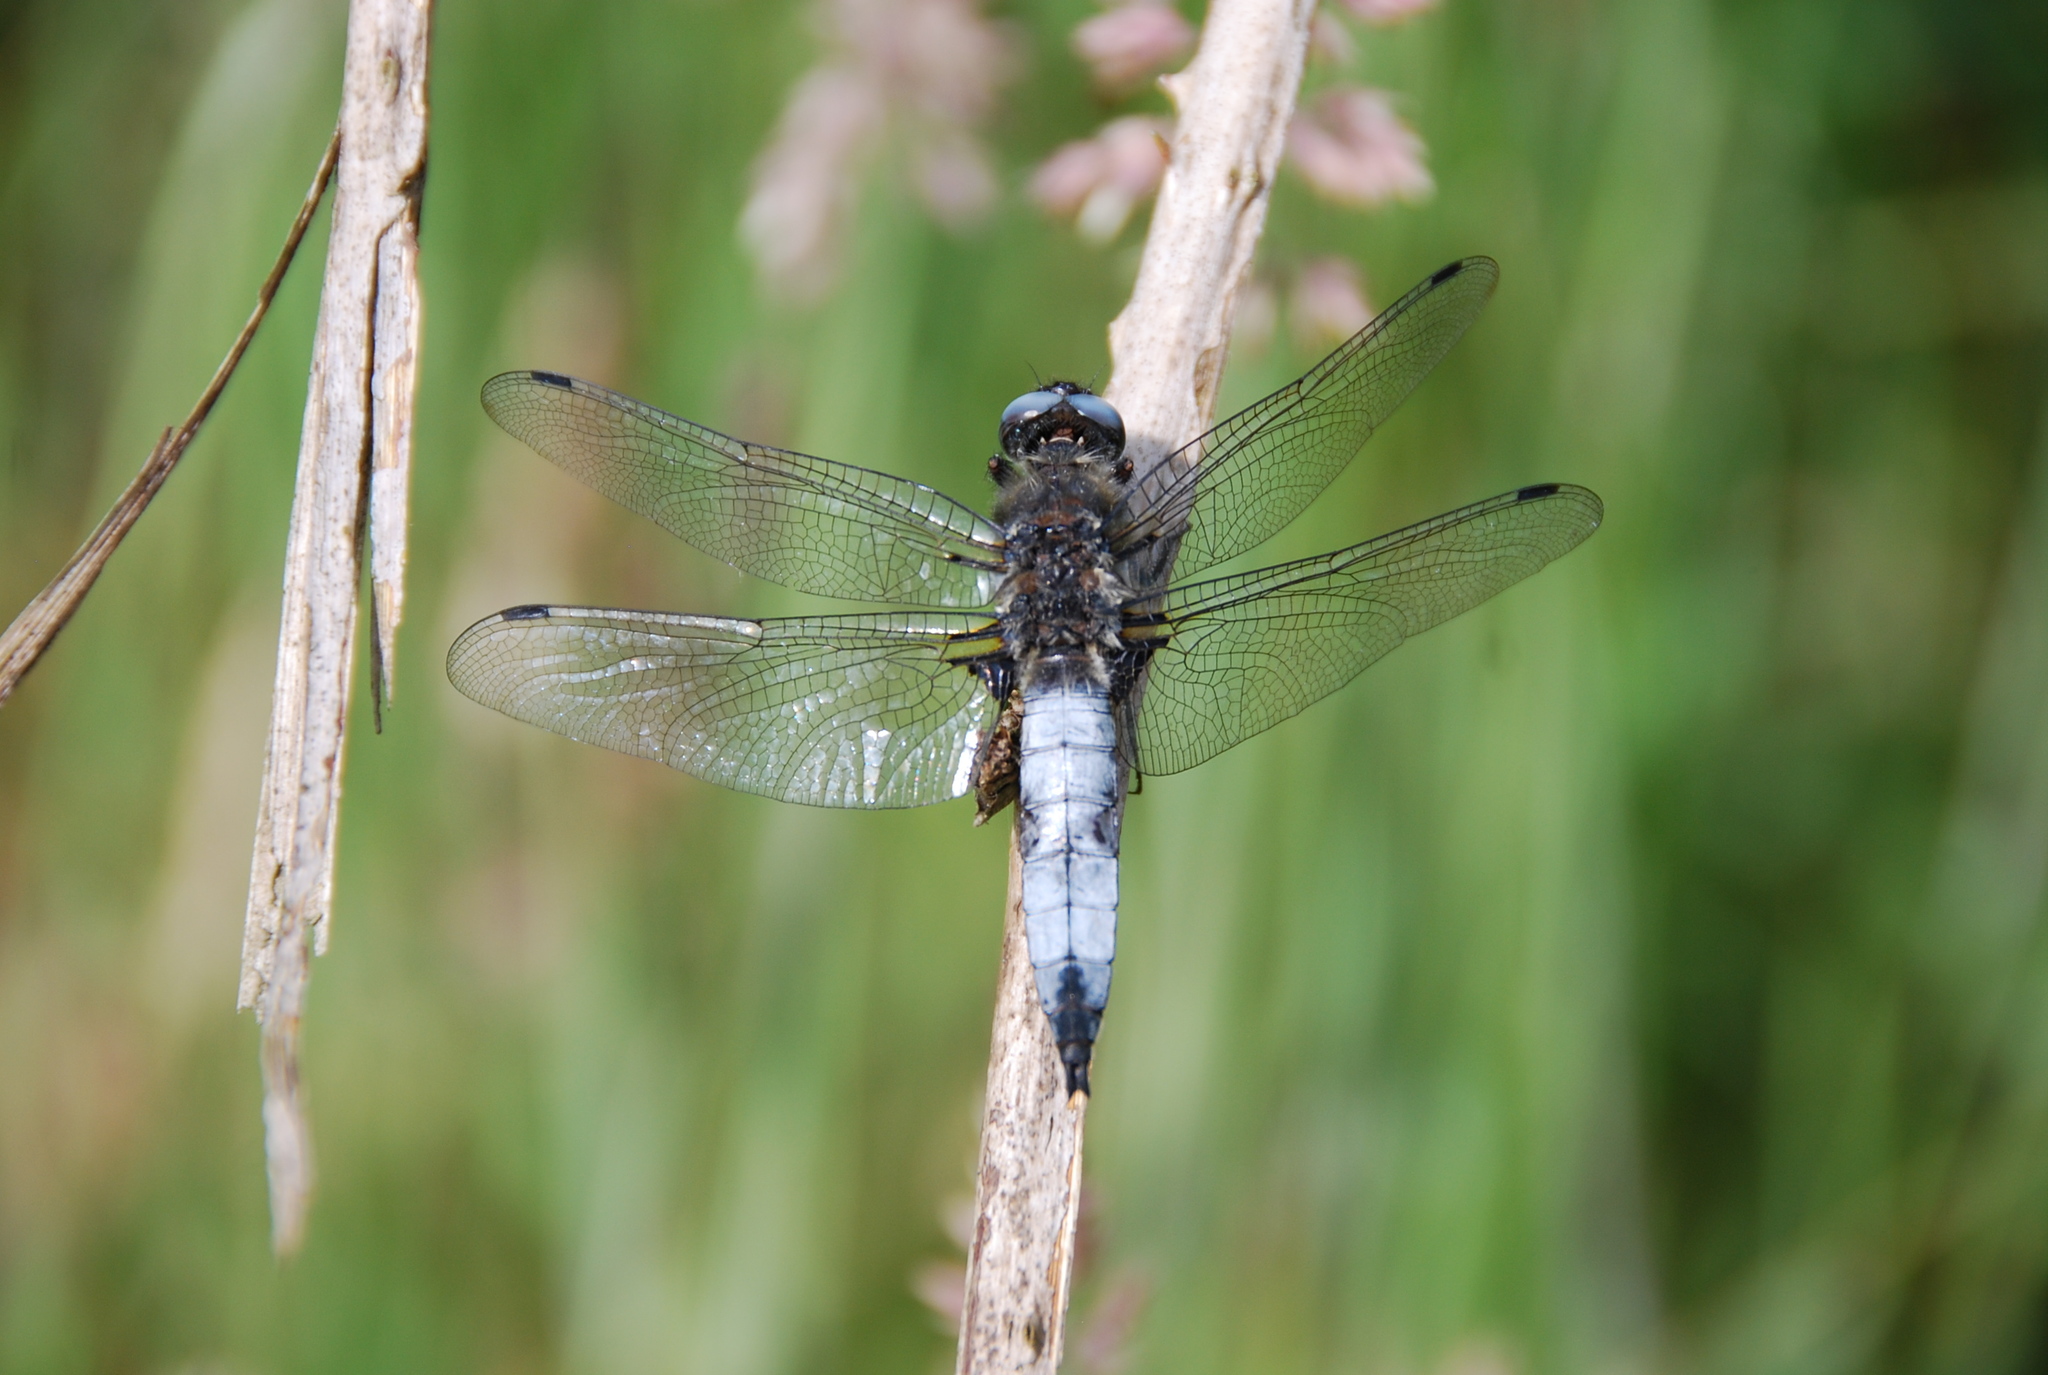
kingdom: Animalia
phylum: Arthropoda
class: Insecta
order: Odonata
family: Libellulidae
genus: Libellula
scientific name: Libellula fulva
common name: Blue chaser
